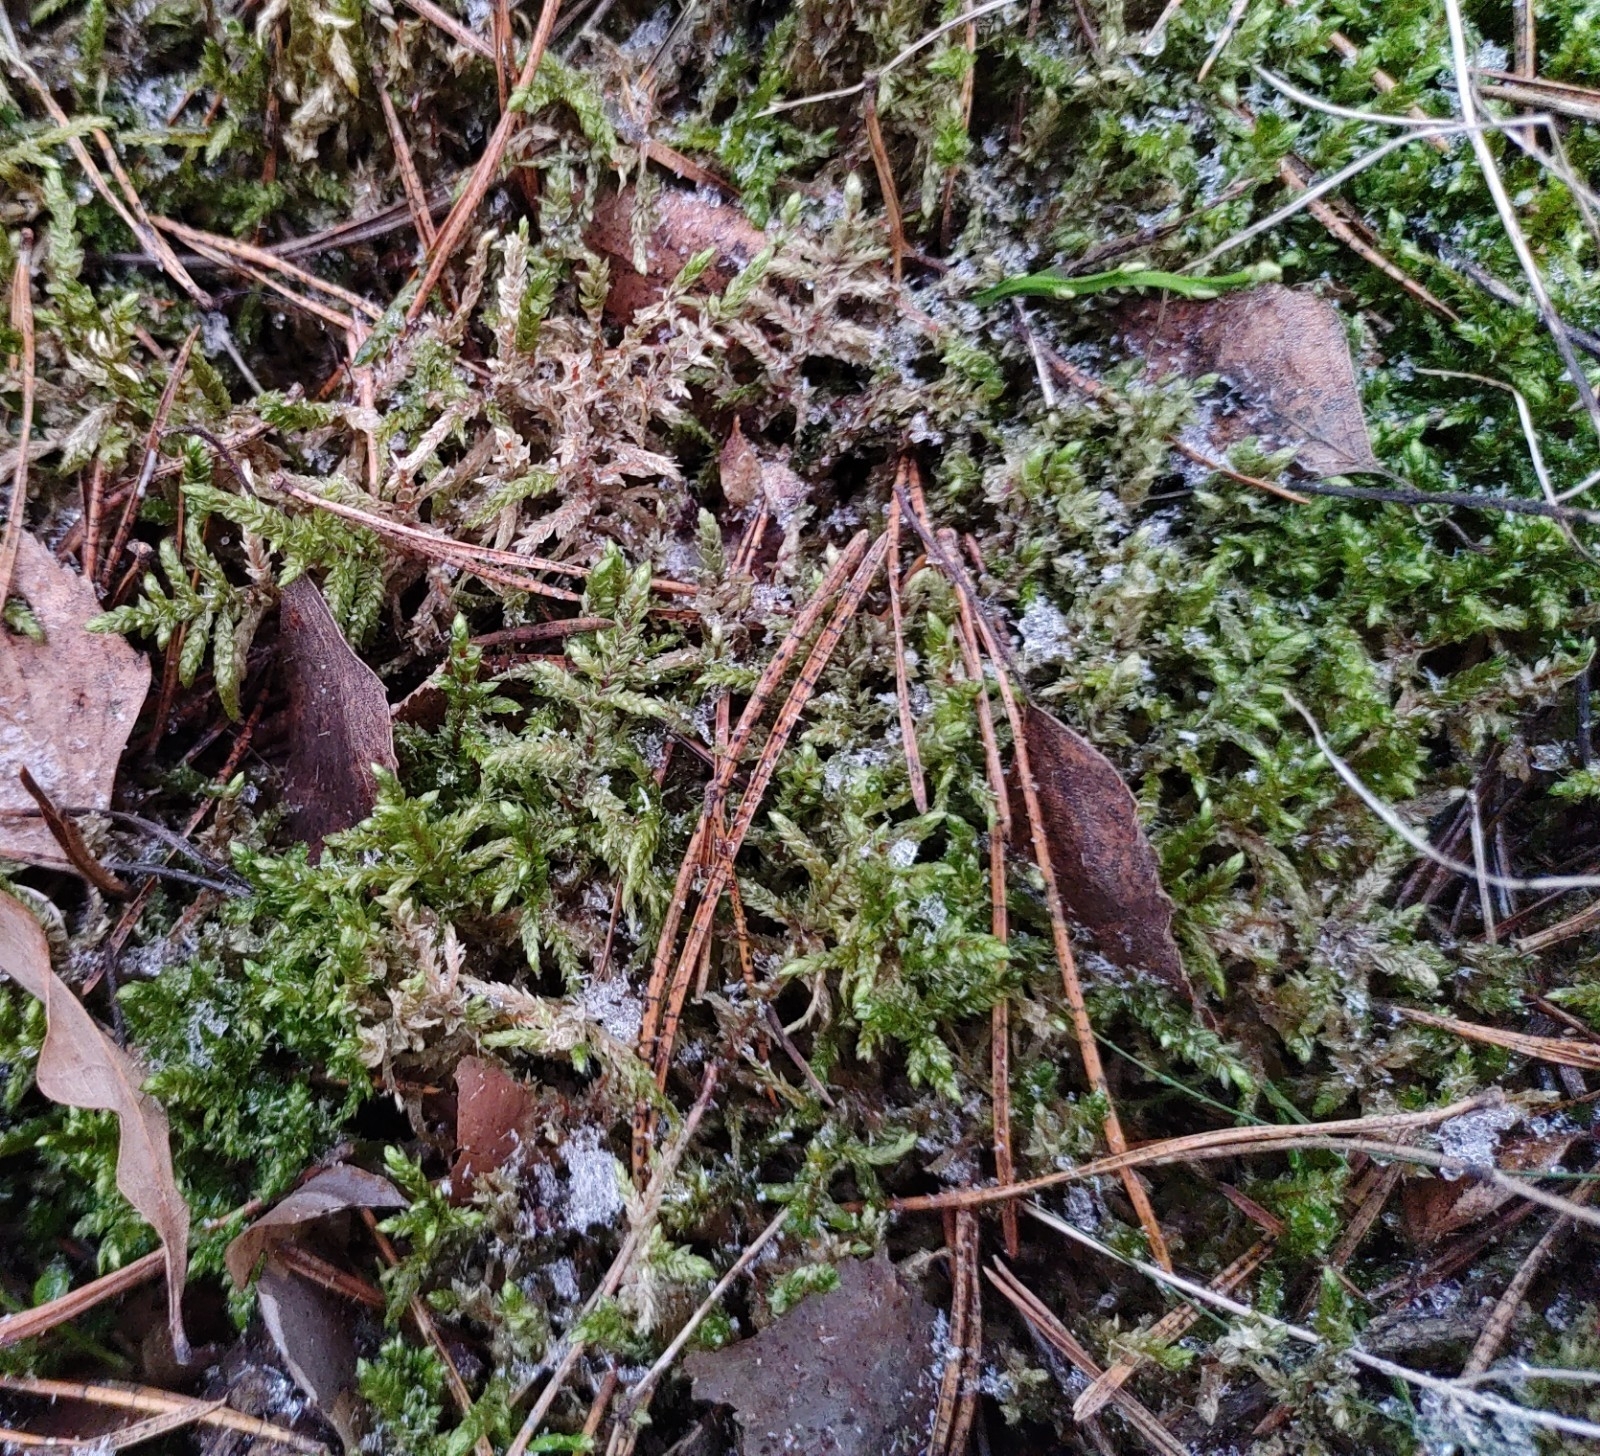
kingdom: Plantae
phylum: Bryophyta
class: Bryopsida
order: Hypnales
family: Hylocomiaceae
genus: Pleurozium
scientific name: Pleurozium schreberi
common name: Red-stemmed feather moss
